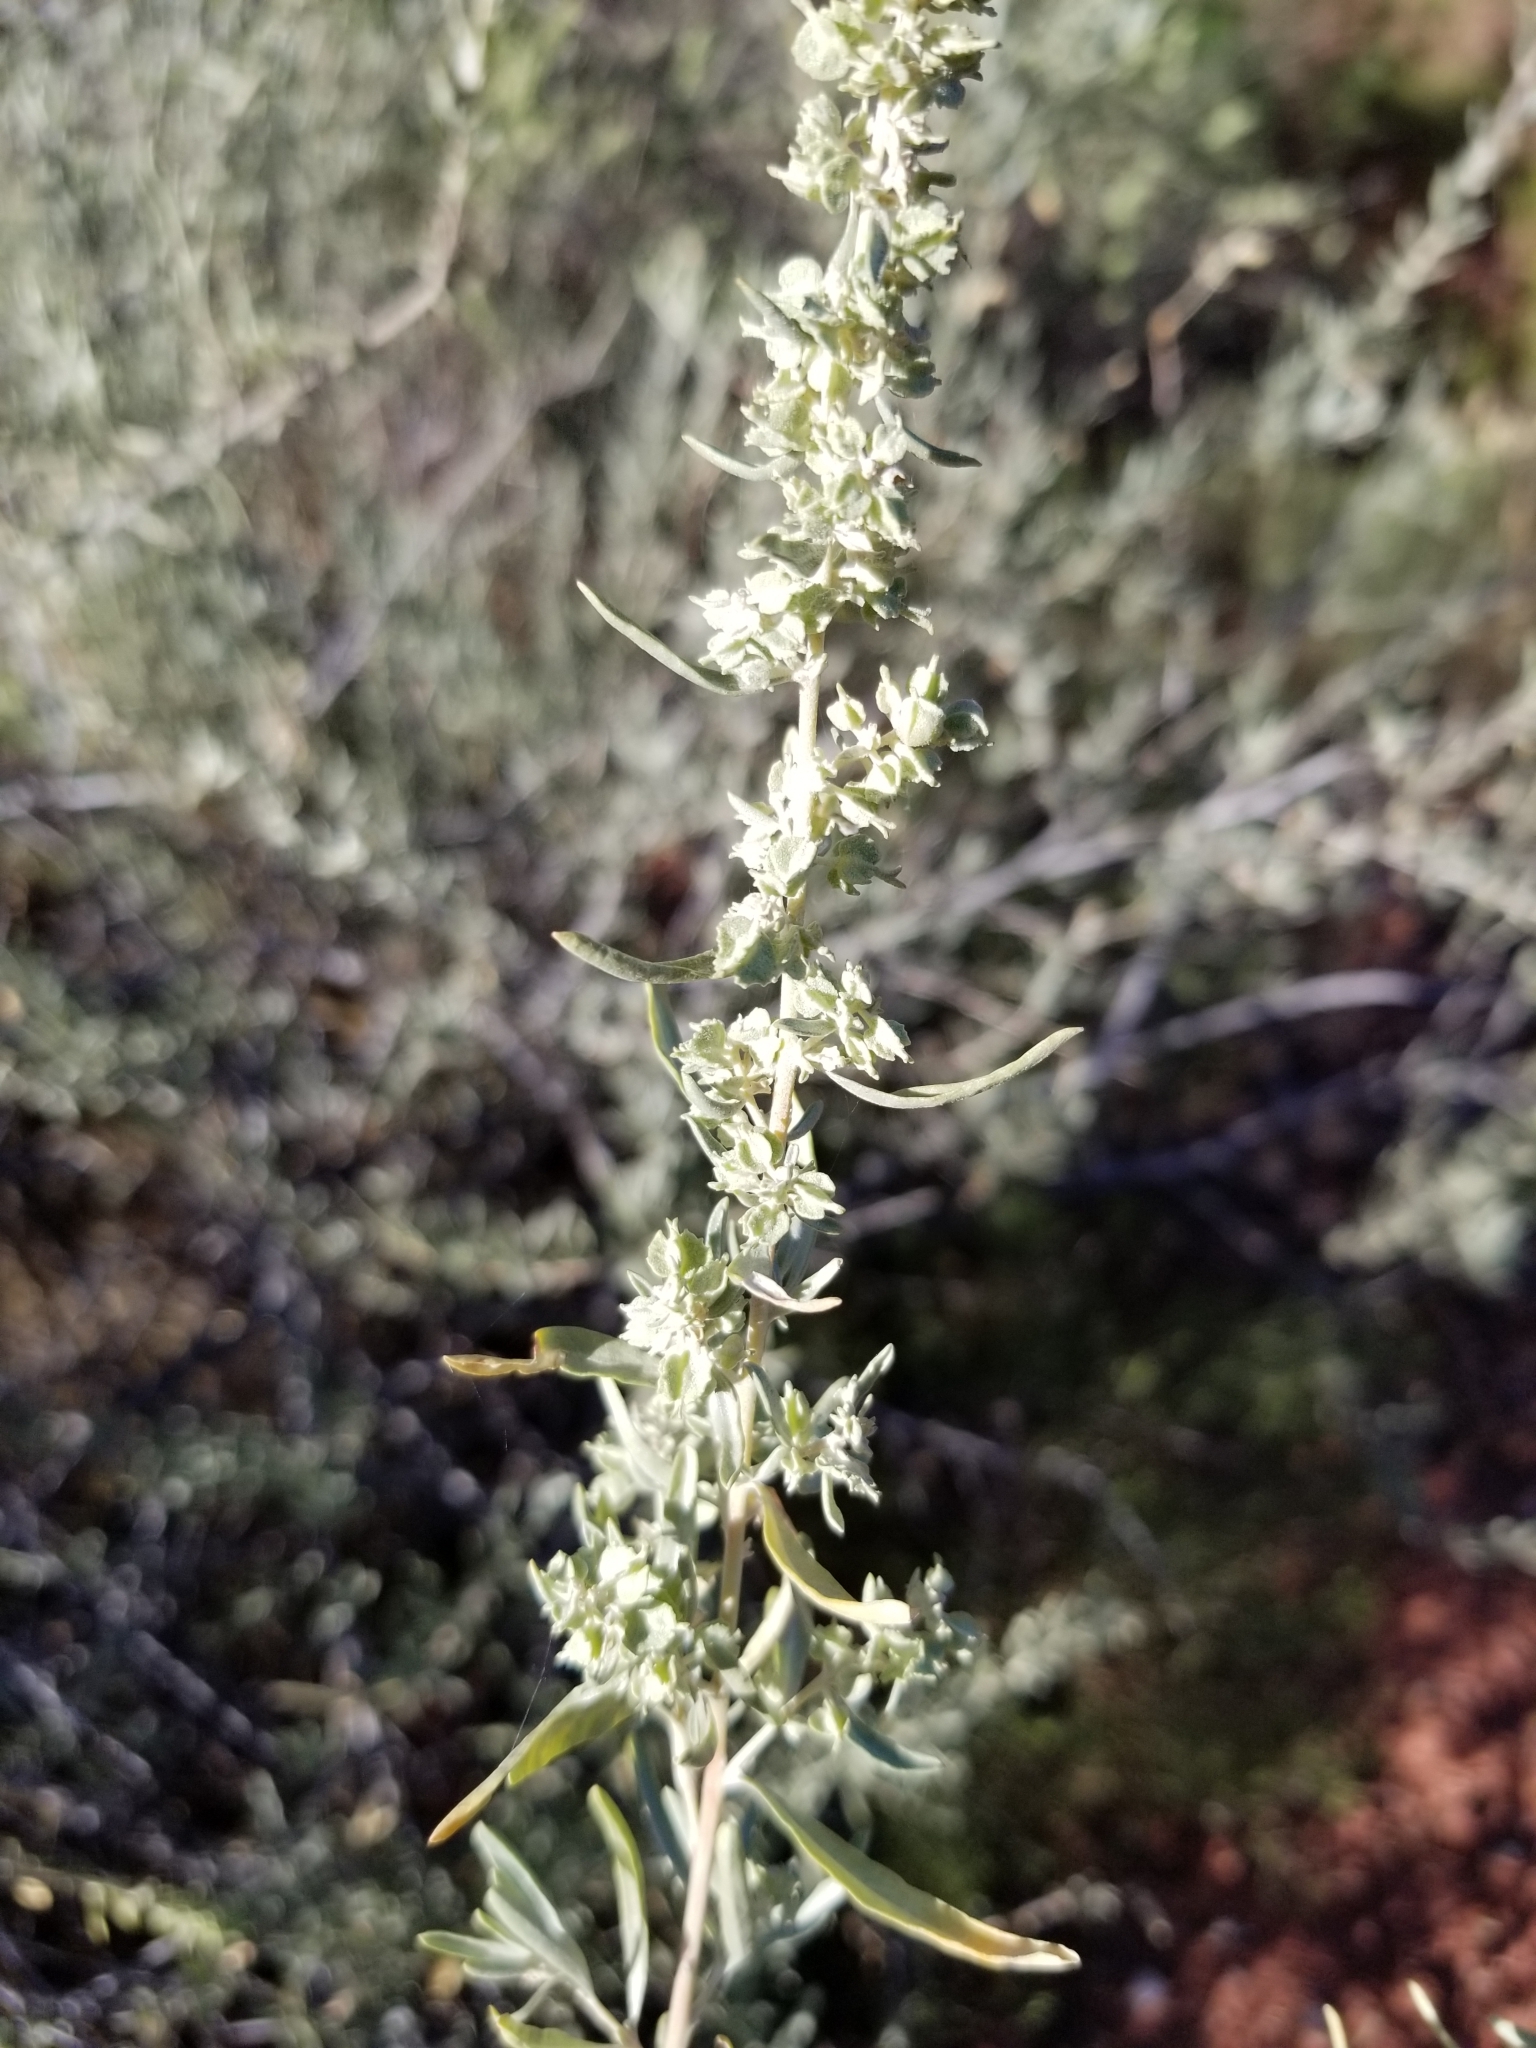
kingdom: Plantae
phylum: Tracheophyta
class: Magnoliopsida
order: Caryophyllales
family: Amaranthaceae
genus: Atriplex
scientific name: Atriplex canescens
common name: Four-wing saltbush
